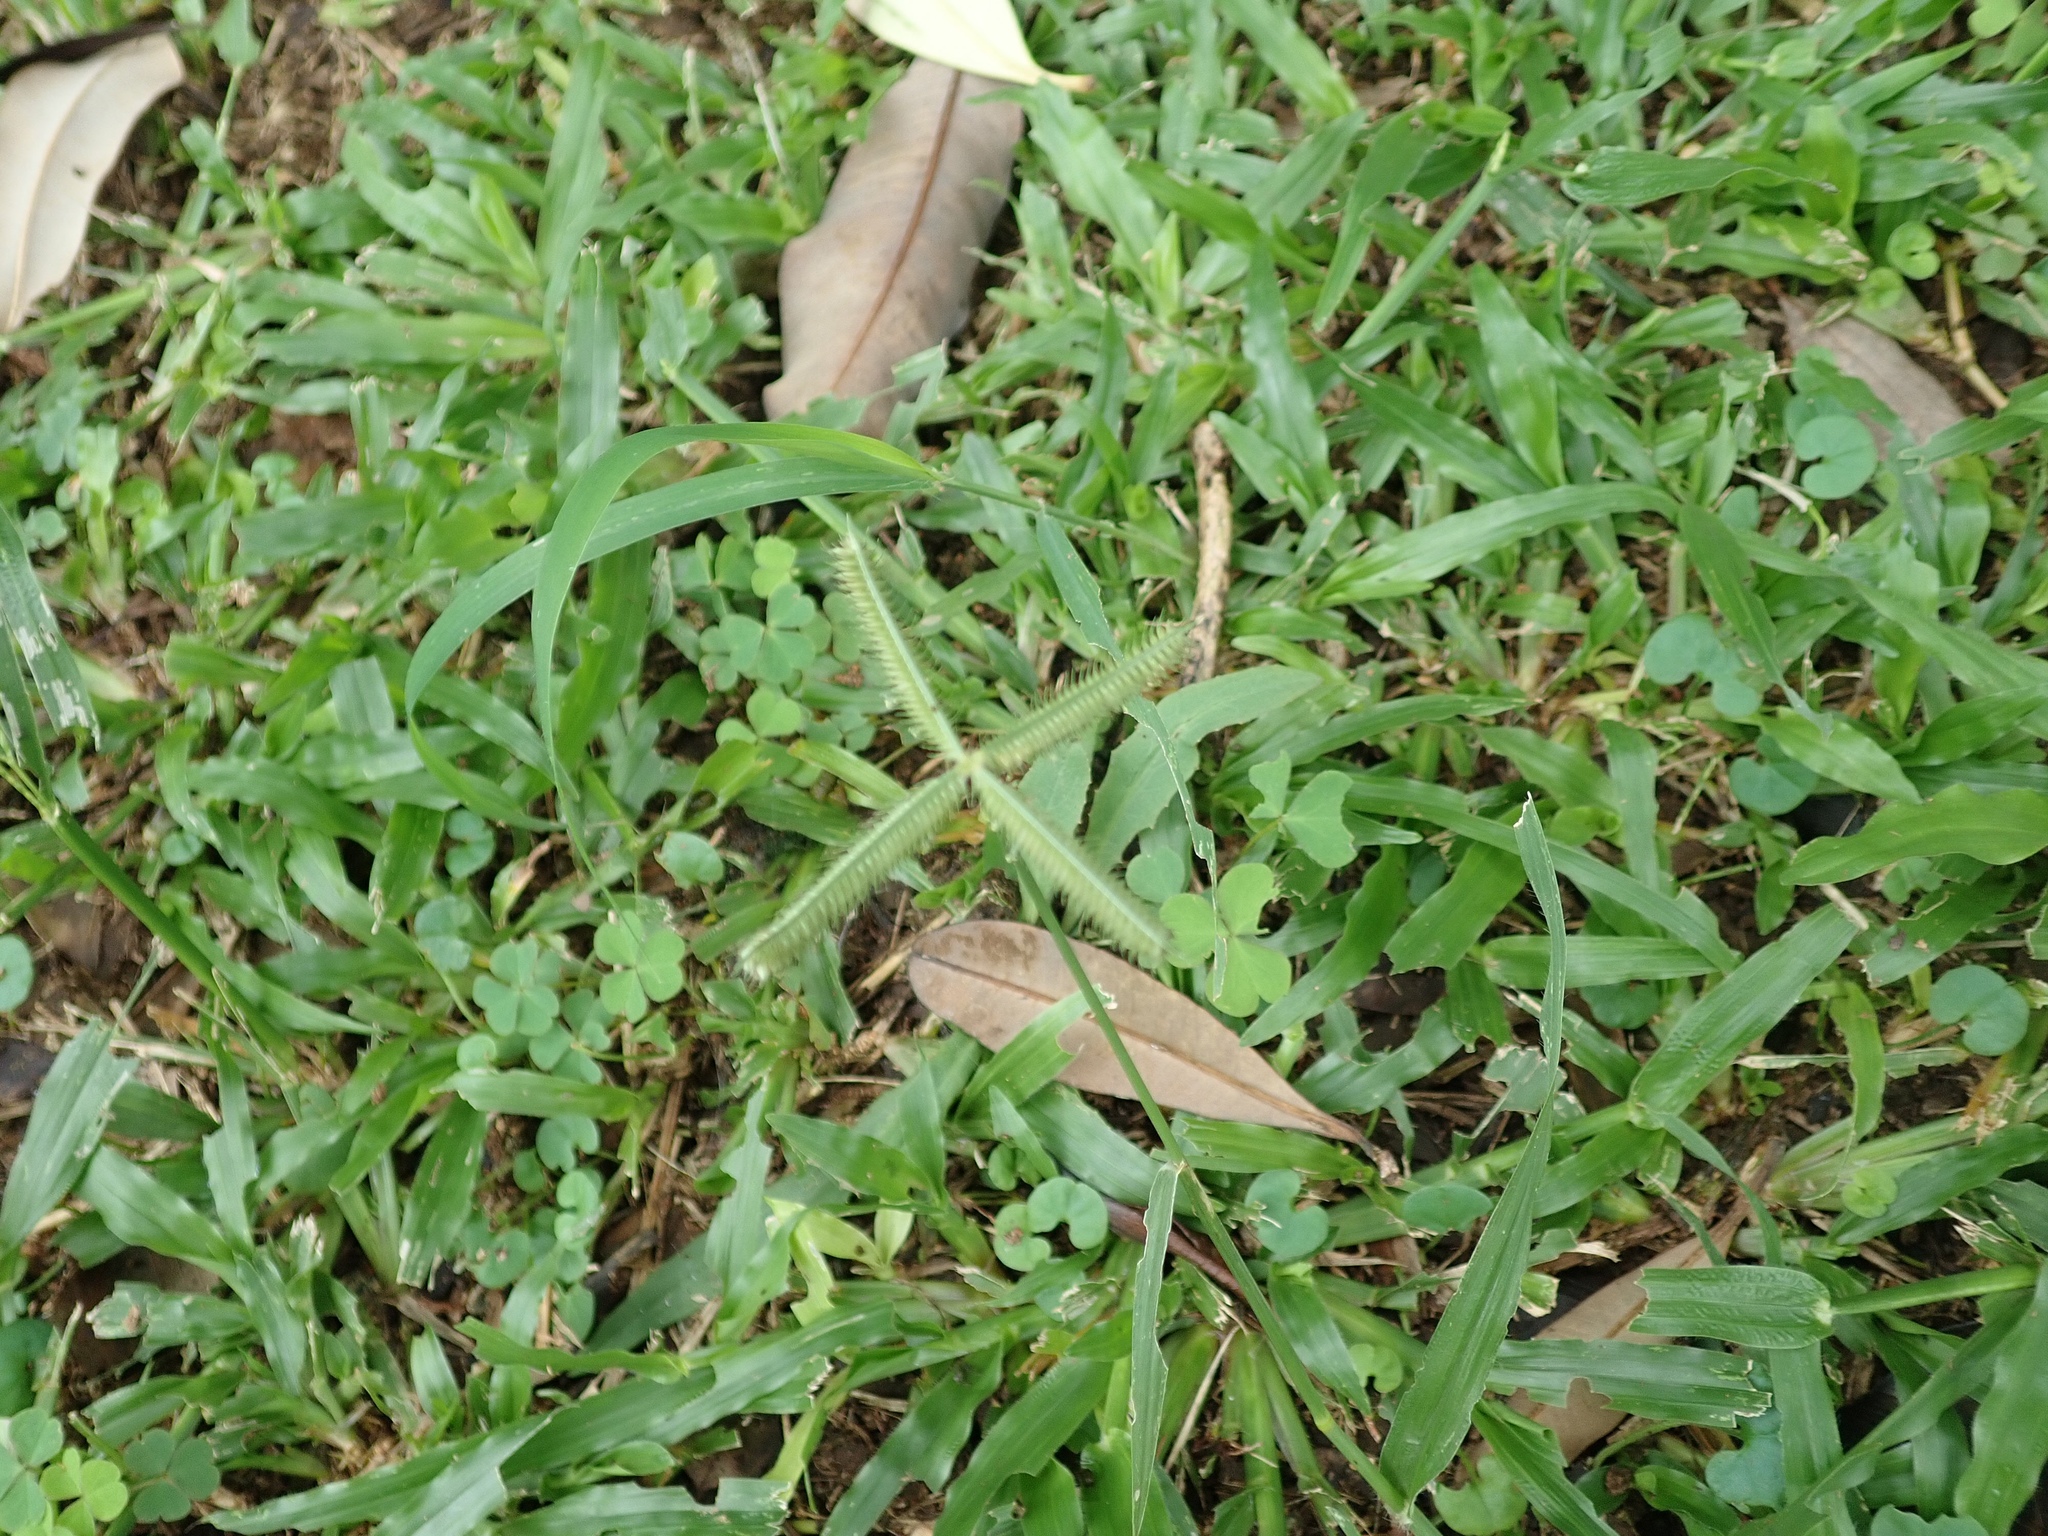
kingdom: Plantae
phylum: Tracheophyta
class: Liliopsida
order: Poales
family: Poaceae
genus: Dactyloctenium
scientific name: Dactyloctenium aegyptium
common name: Egyptian grass
